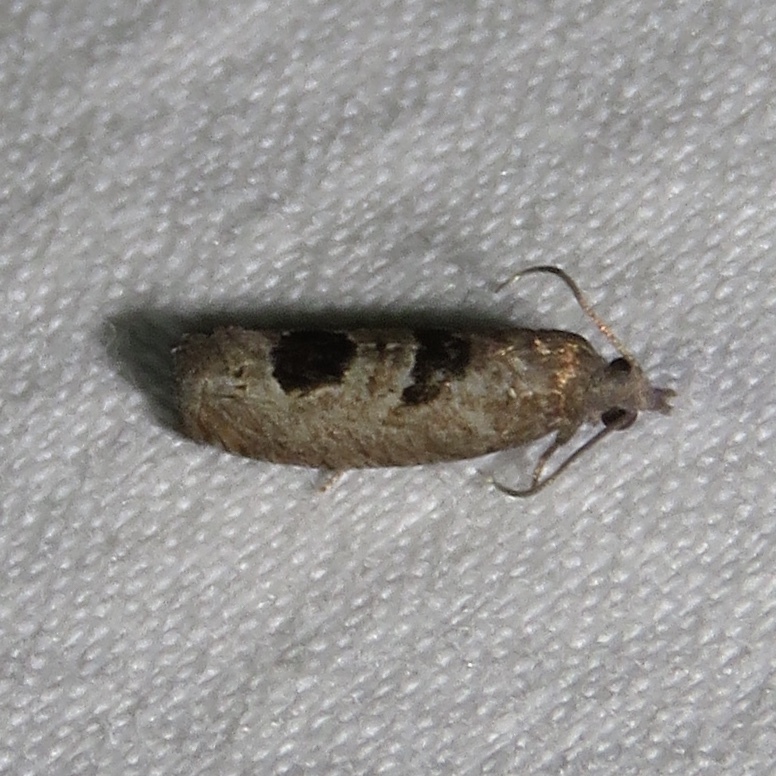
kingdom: Animalia
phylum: Arthropoda
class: Insecta
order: Lepidoptera
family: Tortricidae
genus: Eucosma
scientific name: Eucosma tomonana
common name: Aster-head eucosma moth
